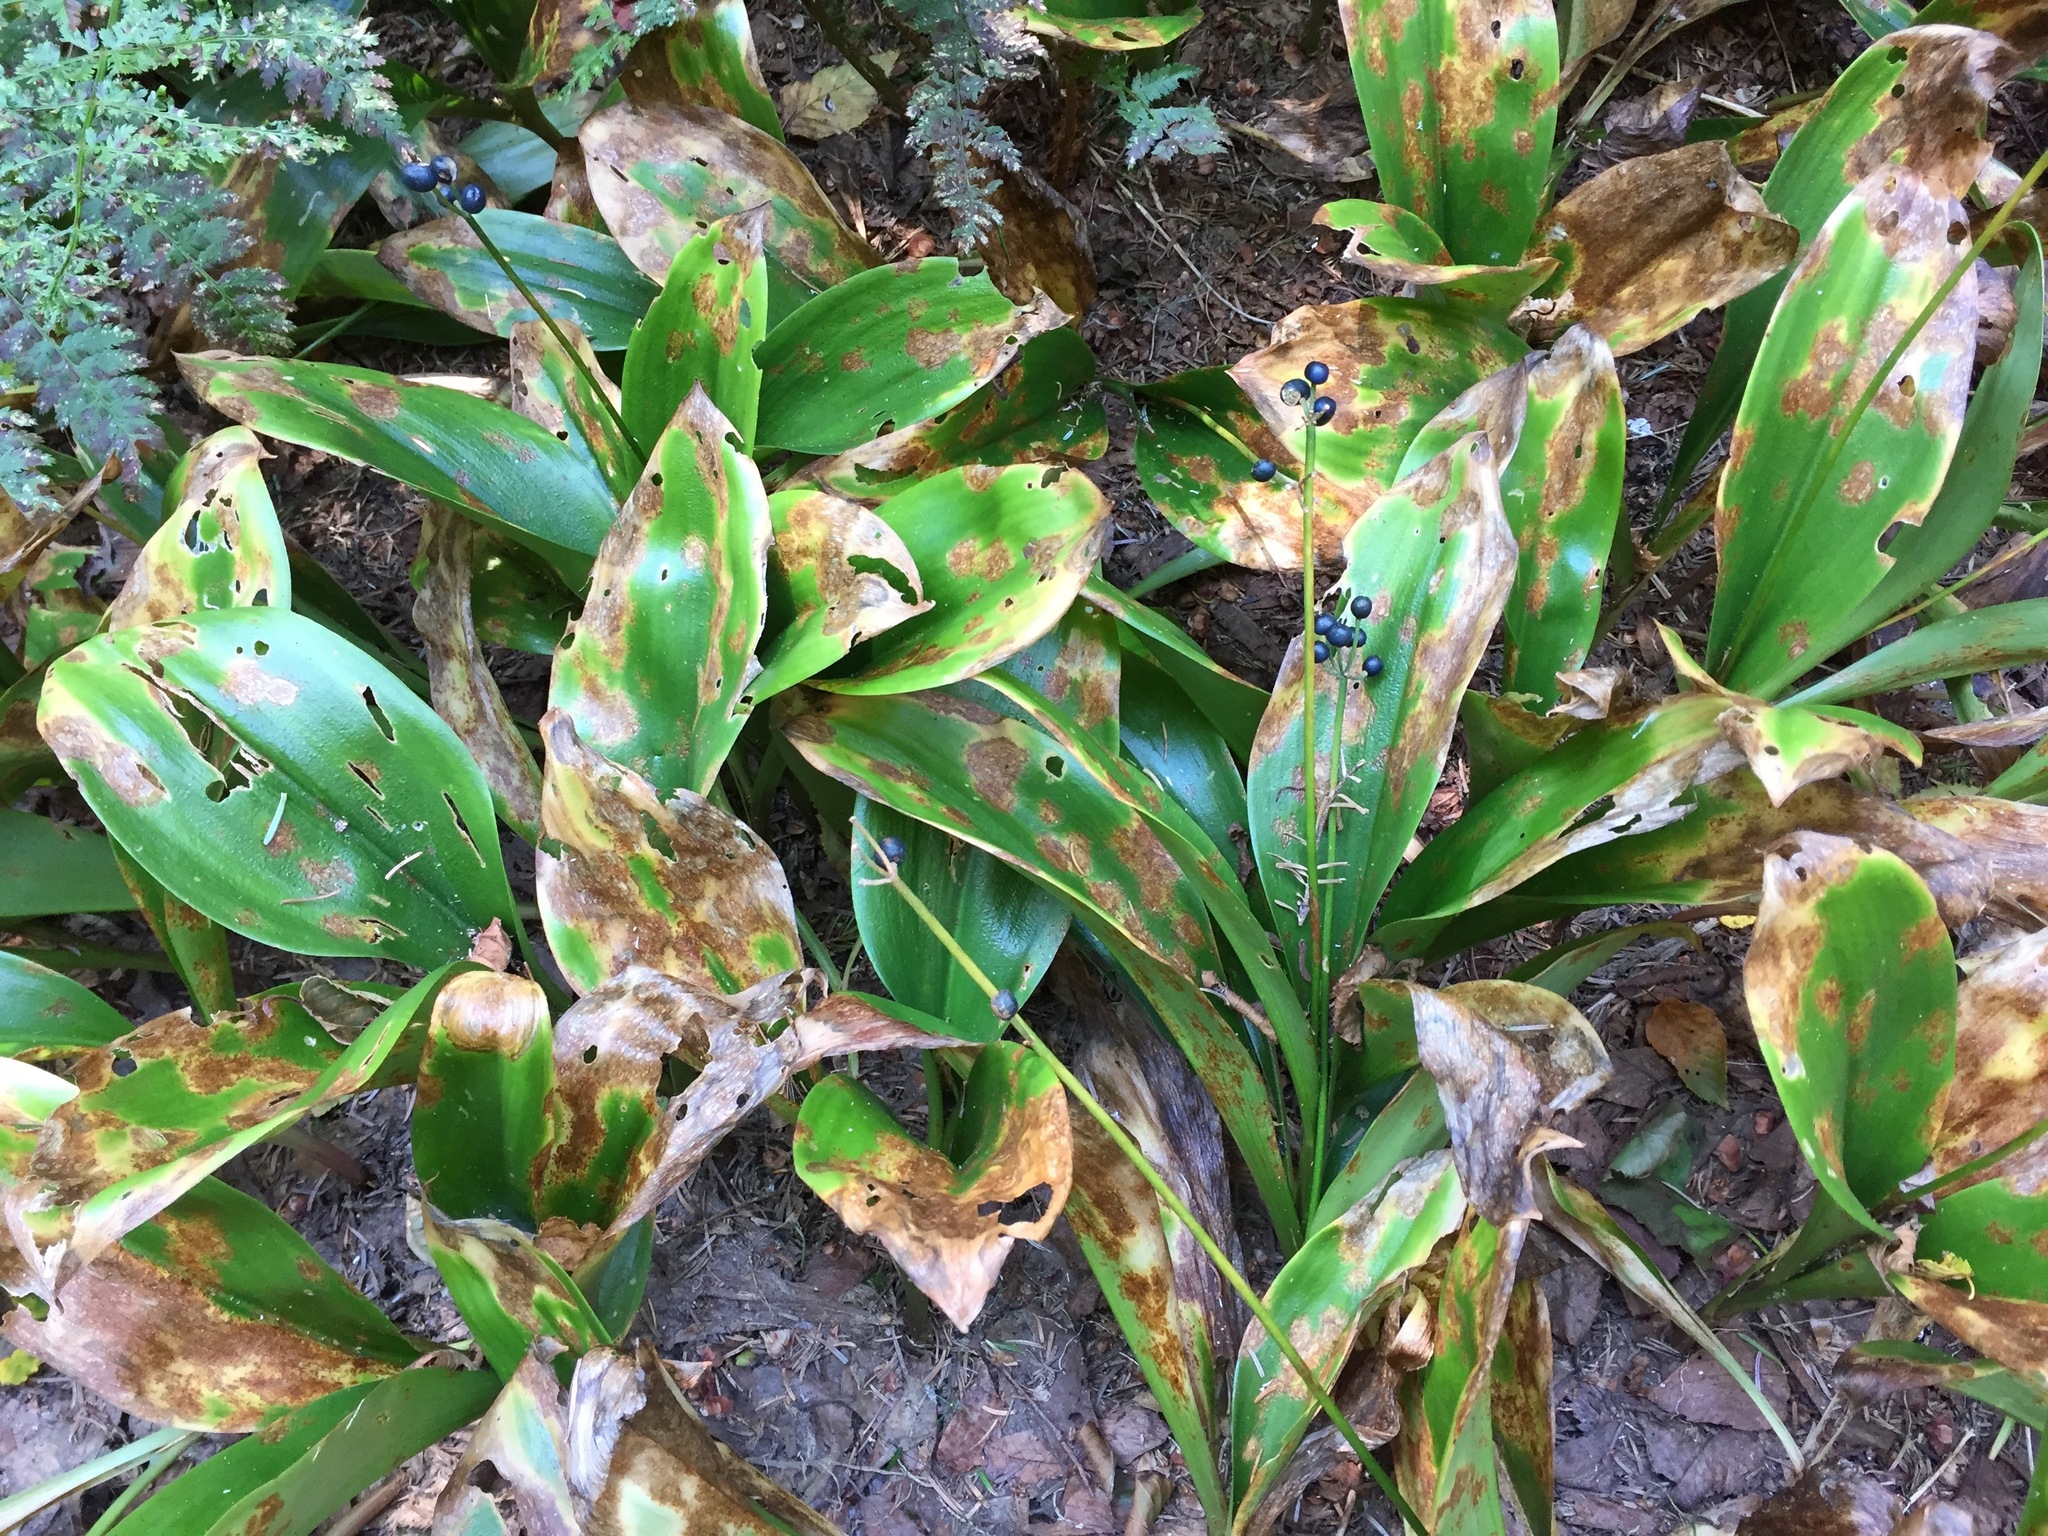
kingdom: Plantae
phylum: Tracheophyta
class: Liliopsida
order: Liliales
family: Liliaceae
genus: Clintonia
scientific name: Clintonia borealis
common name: Yellow clintonia
